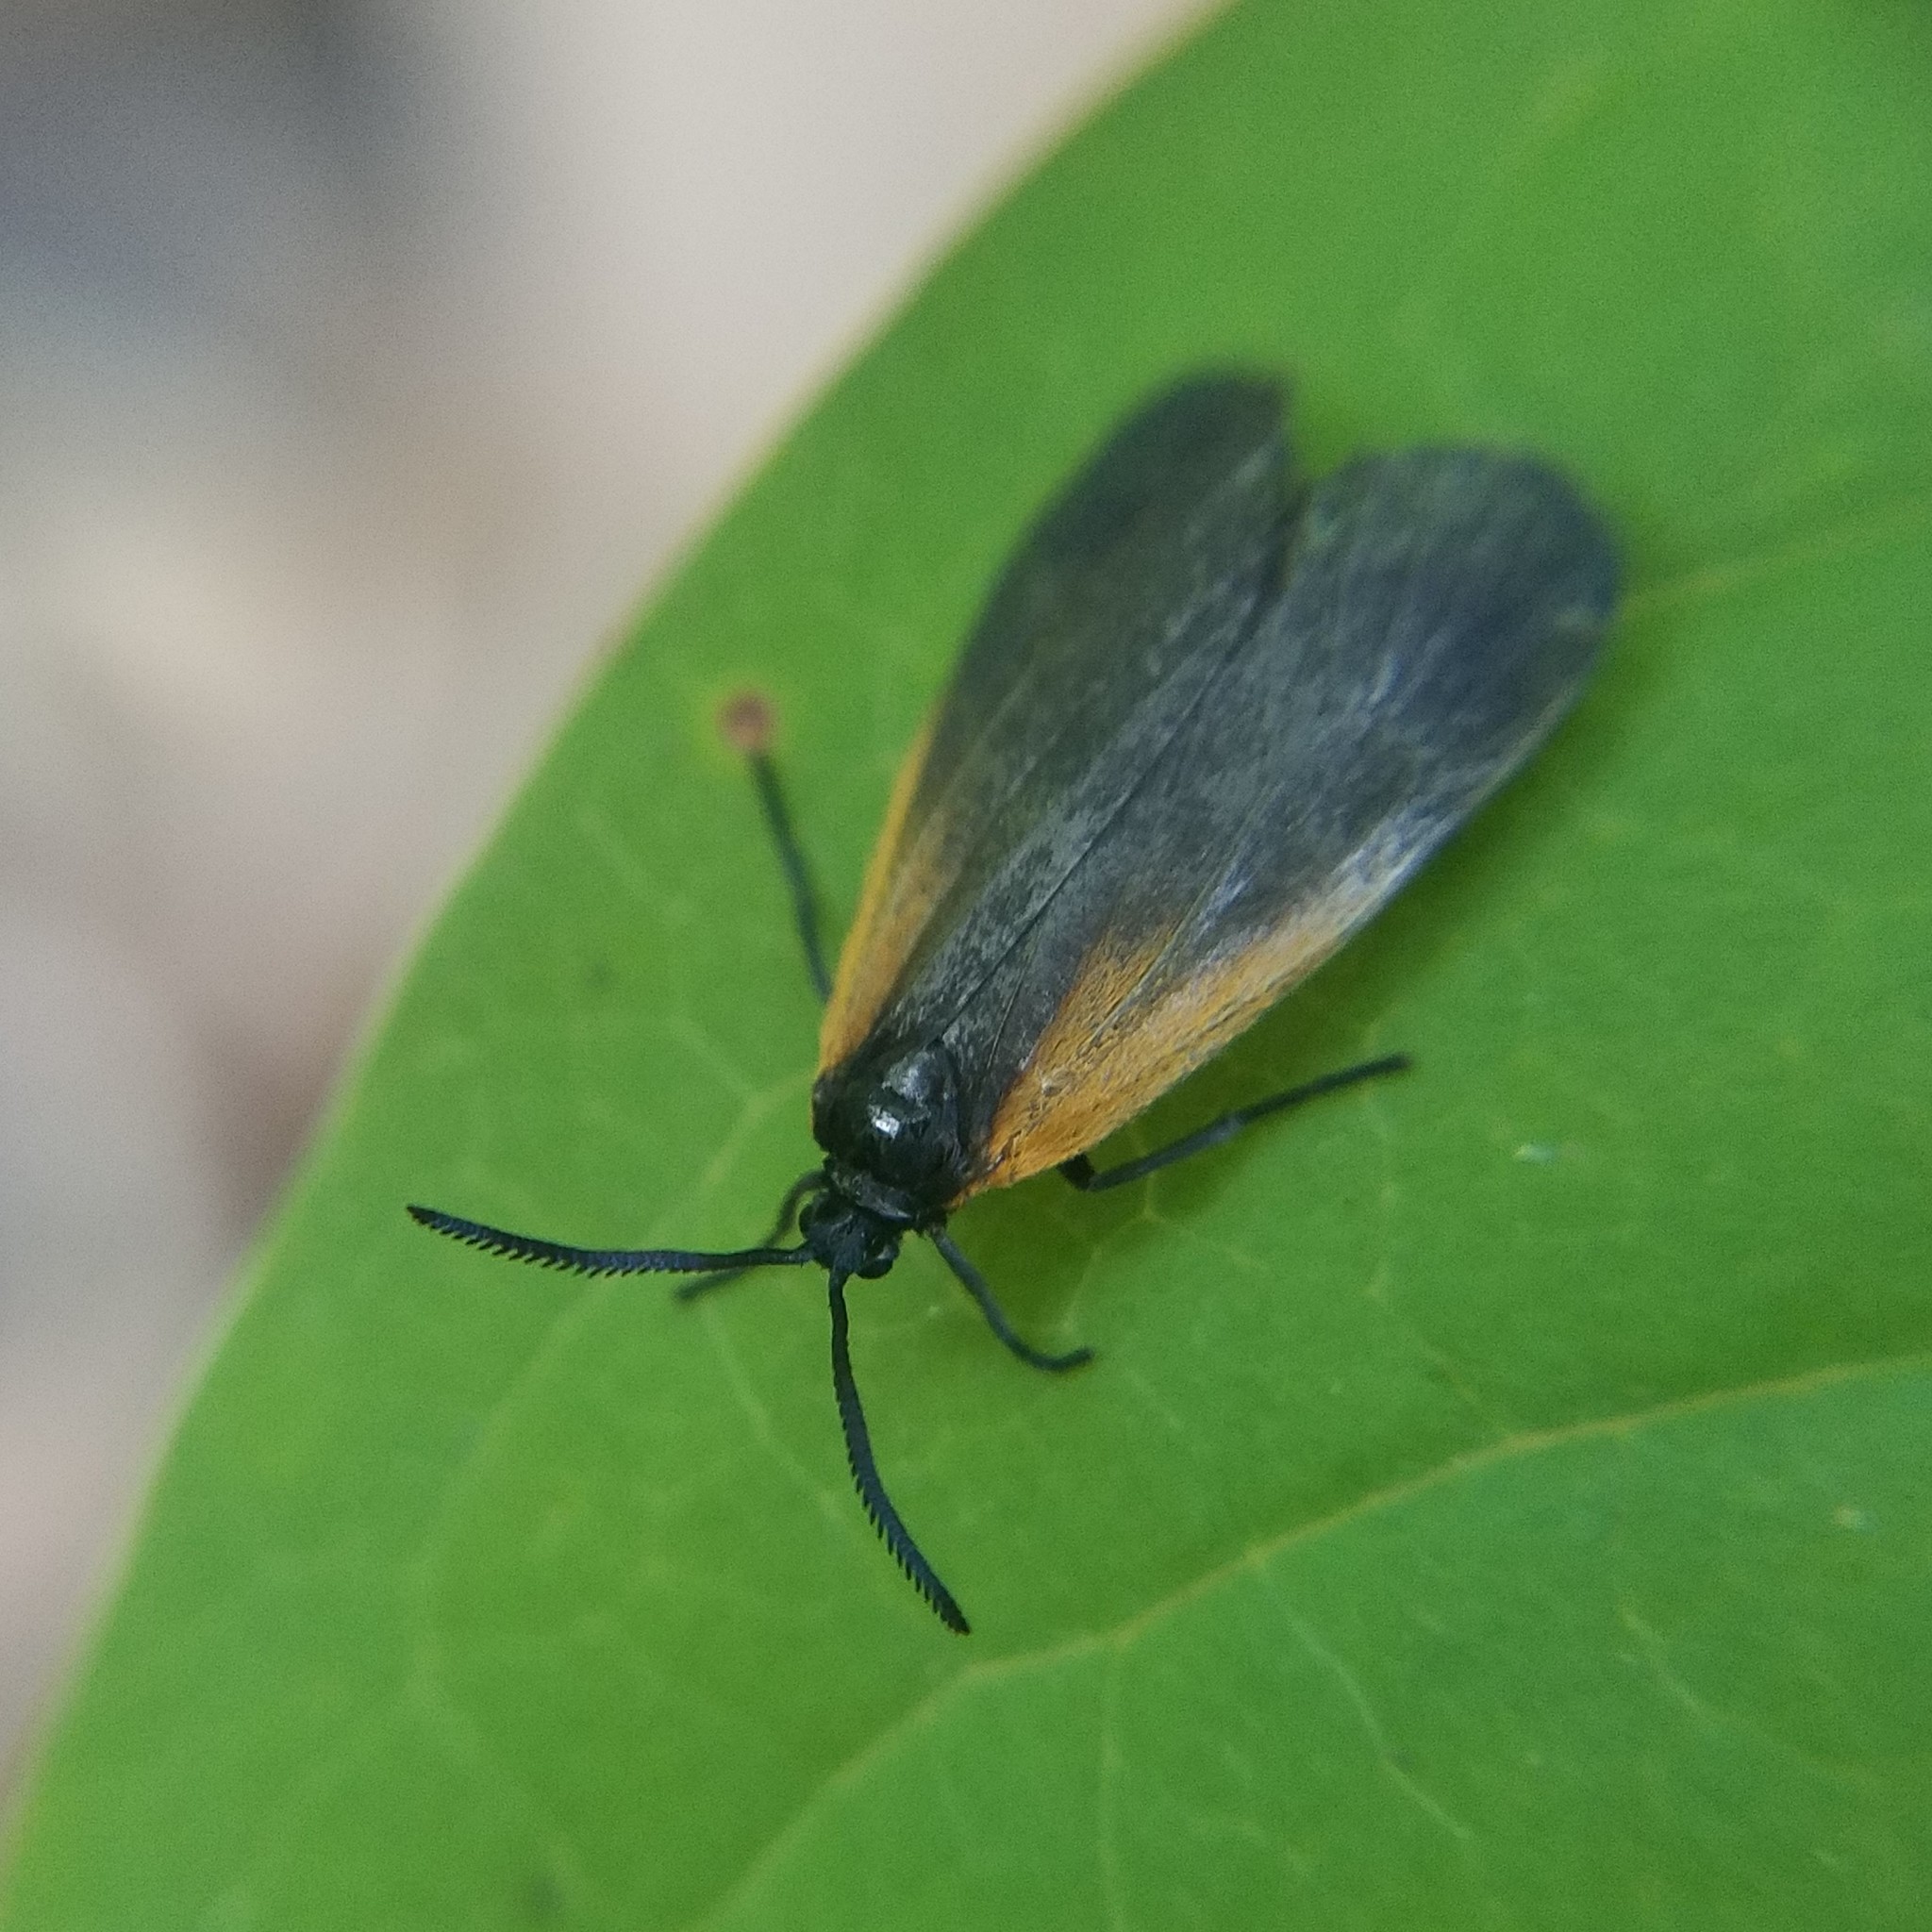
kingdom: Animalia
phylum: Arthropoda
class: Insecta
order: Lepidoptera
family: Zygaenidae
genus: Malthaca
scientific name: Malthaca dimidiata
